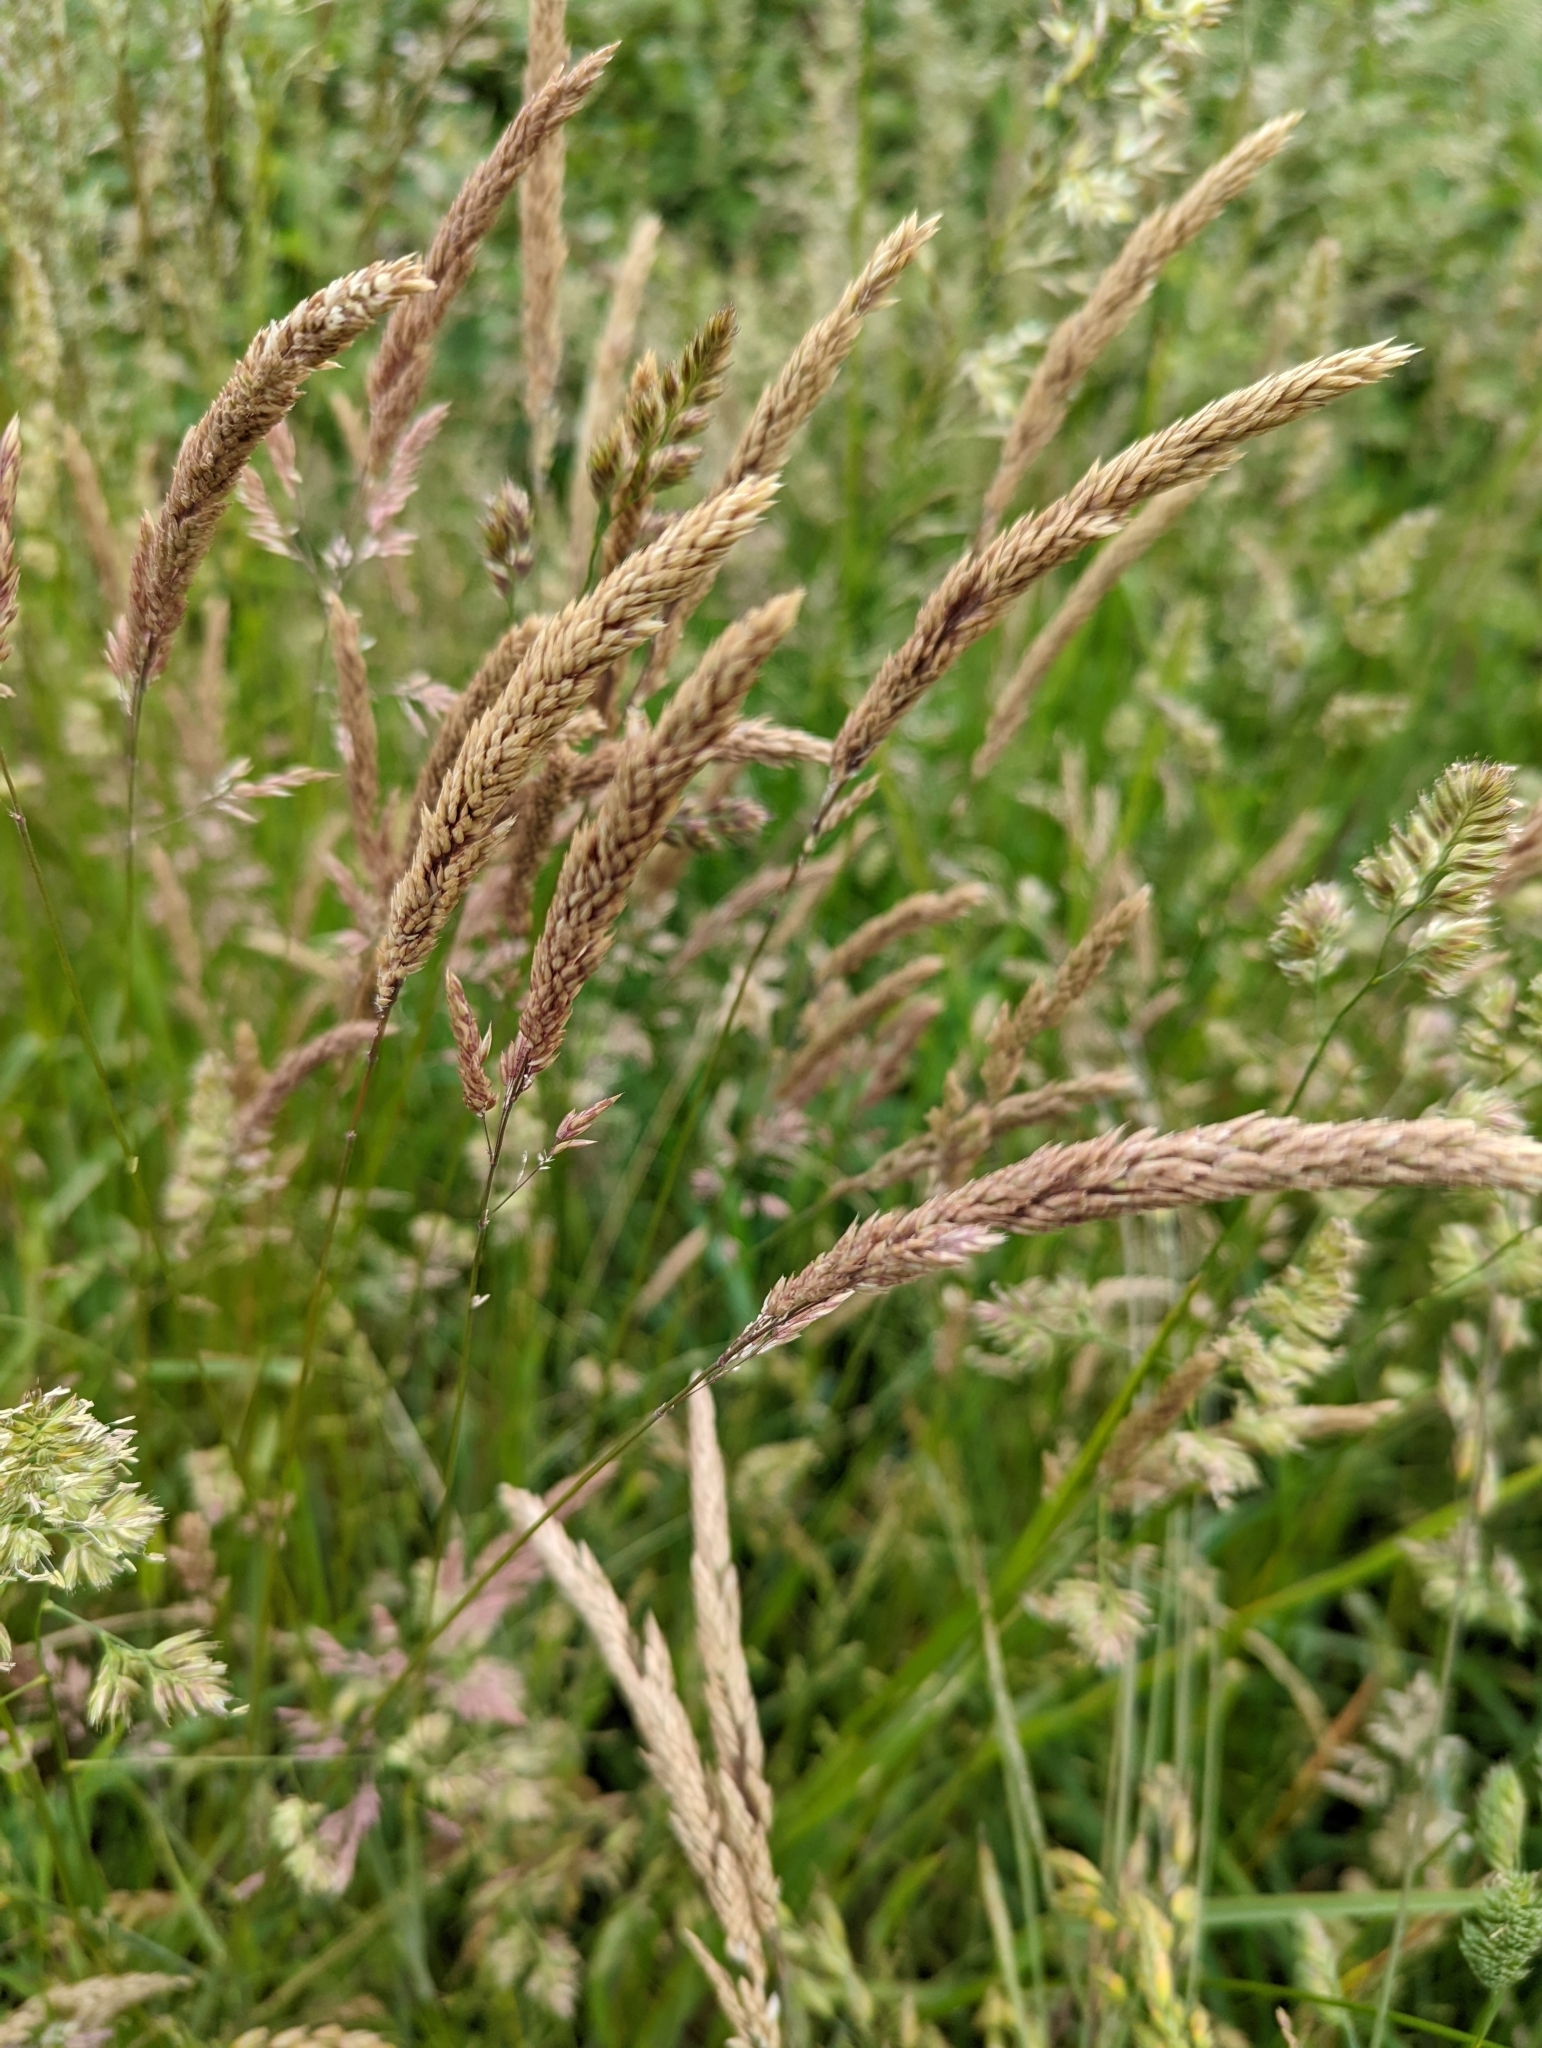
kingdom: Plantae
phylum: Tracheophyta
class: Liliopsida
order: Poales
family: Poaceae
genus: Holcus
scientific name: Holcus lanatus
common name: Yorkshire-fog
